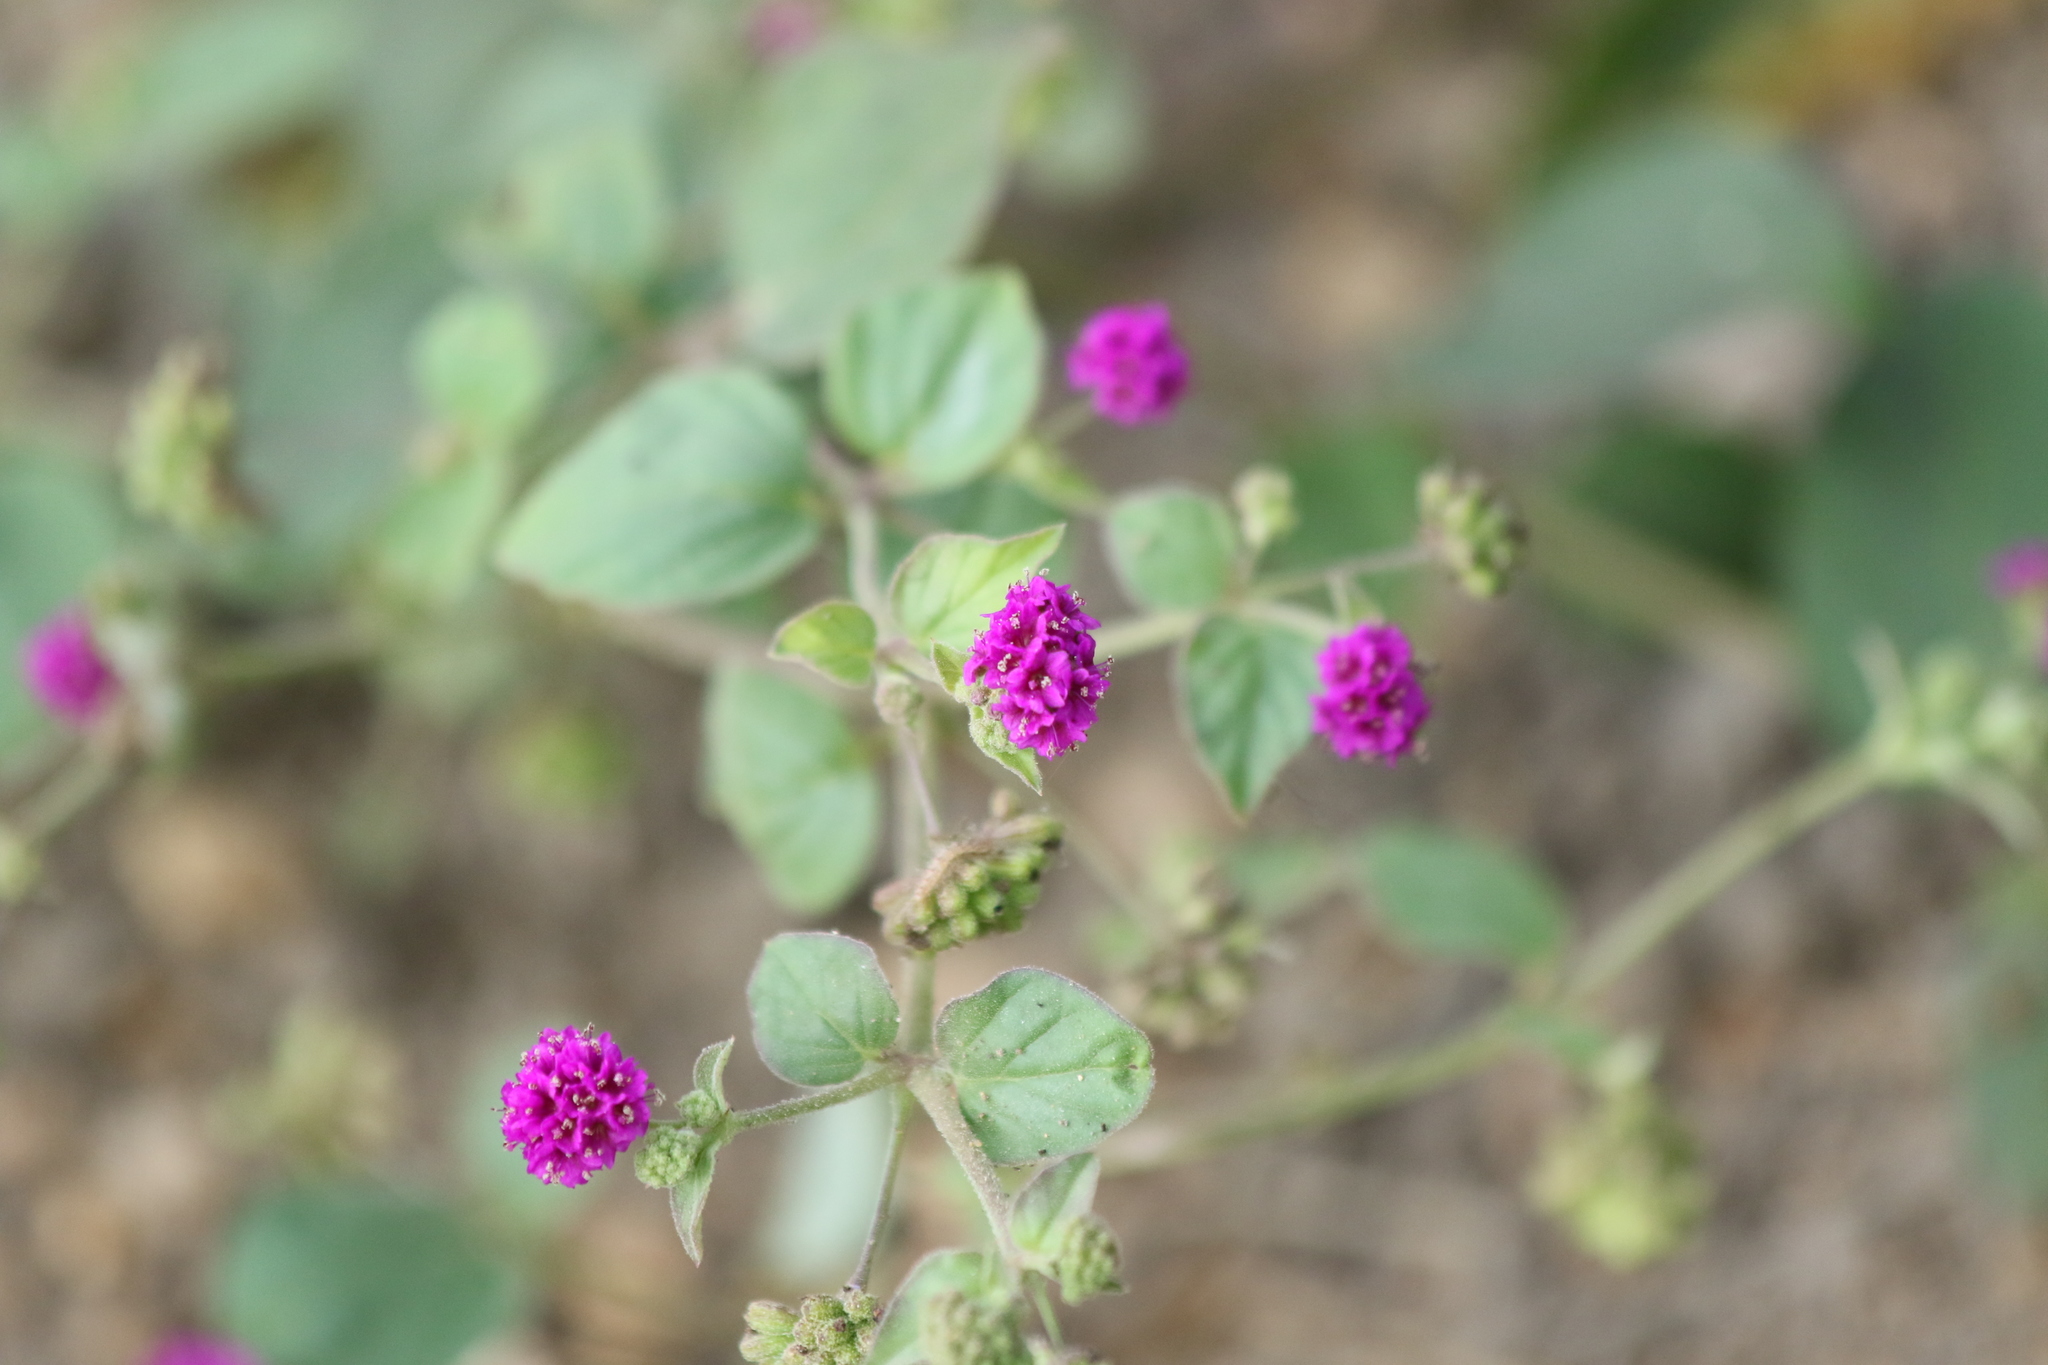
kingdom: Plantae
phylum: Tracheophyta
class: Magnoliopsida
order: Caryophyllales
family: Nyctaginaceae
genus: Boerhavia
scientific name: Boerhavia coccinea
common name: Scarlet spiderling
